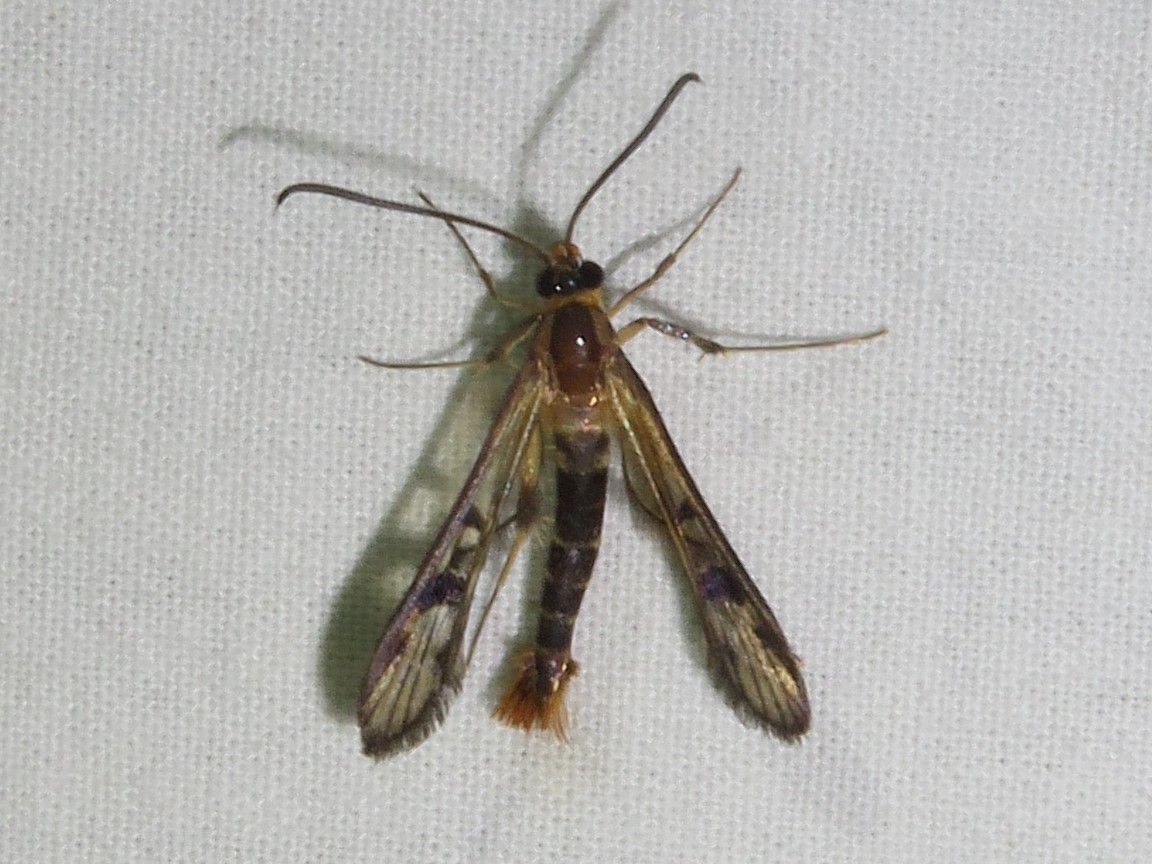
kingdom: Animalia
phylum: Arthropoda
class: Insecta
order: Lepidoptera
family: Sesiidae
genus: Synanthedon
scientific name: Synanthedon acerni
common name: Maple callus borer moth
